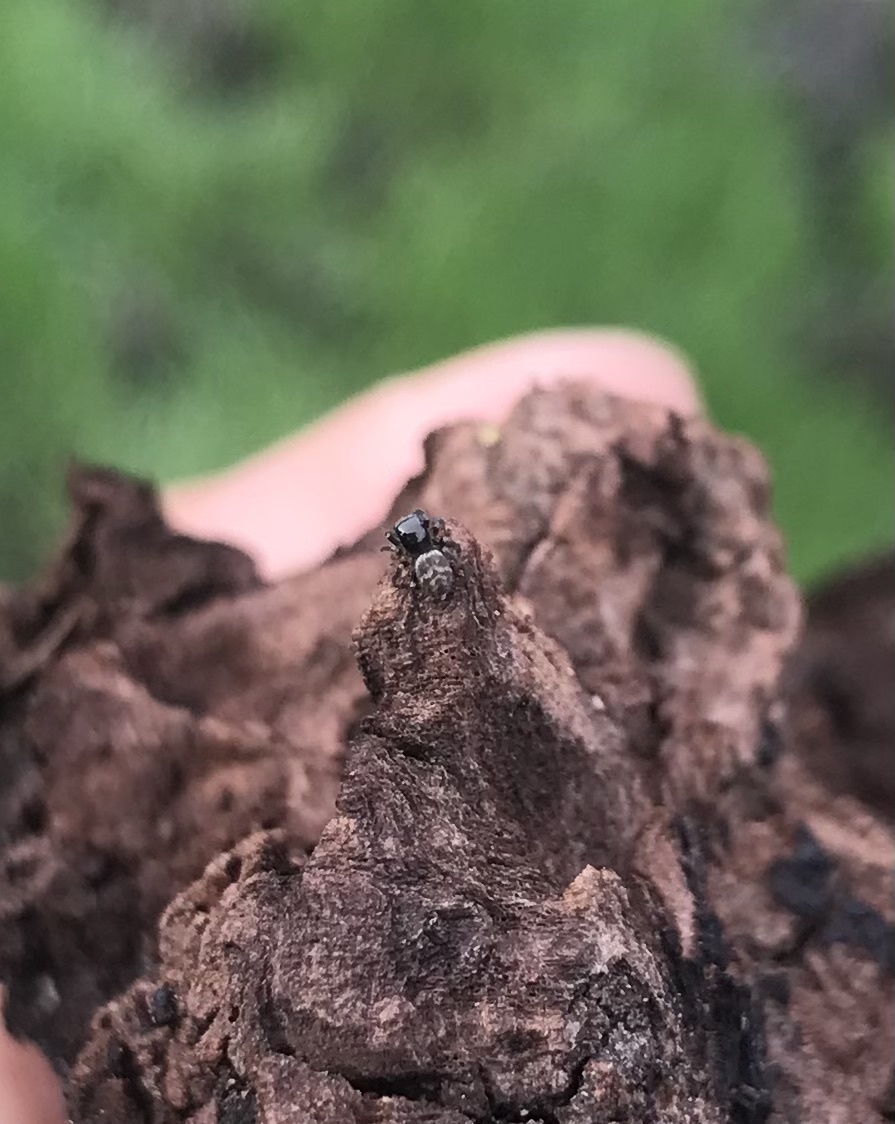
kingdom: Animalia
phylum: Arthropoda
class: Arachnida
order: Araneae
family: Salticidae
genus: Chalcoscirtus
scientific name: Chalcoscirtus diminutus
